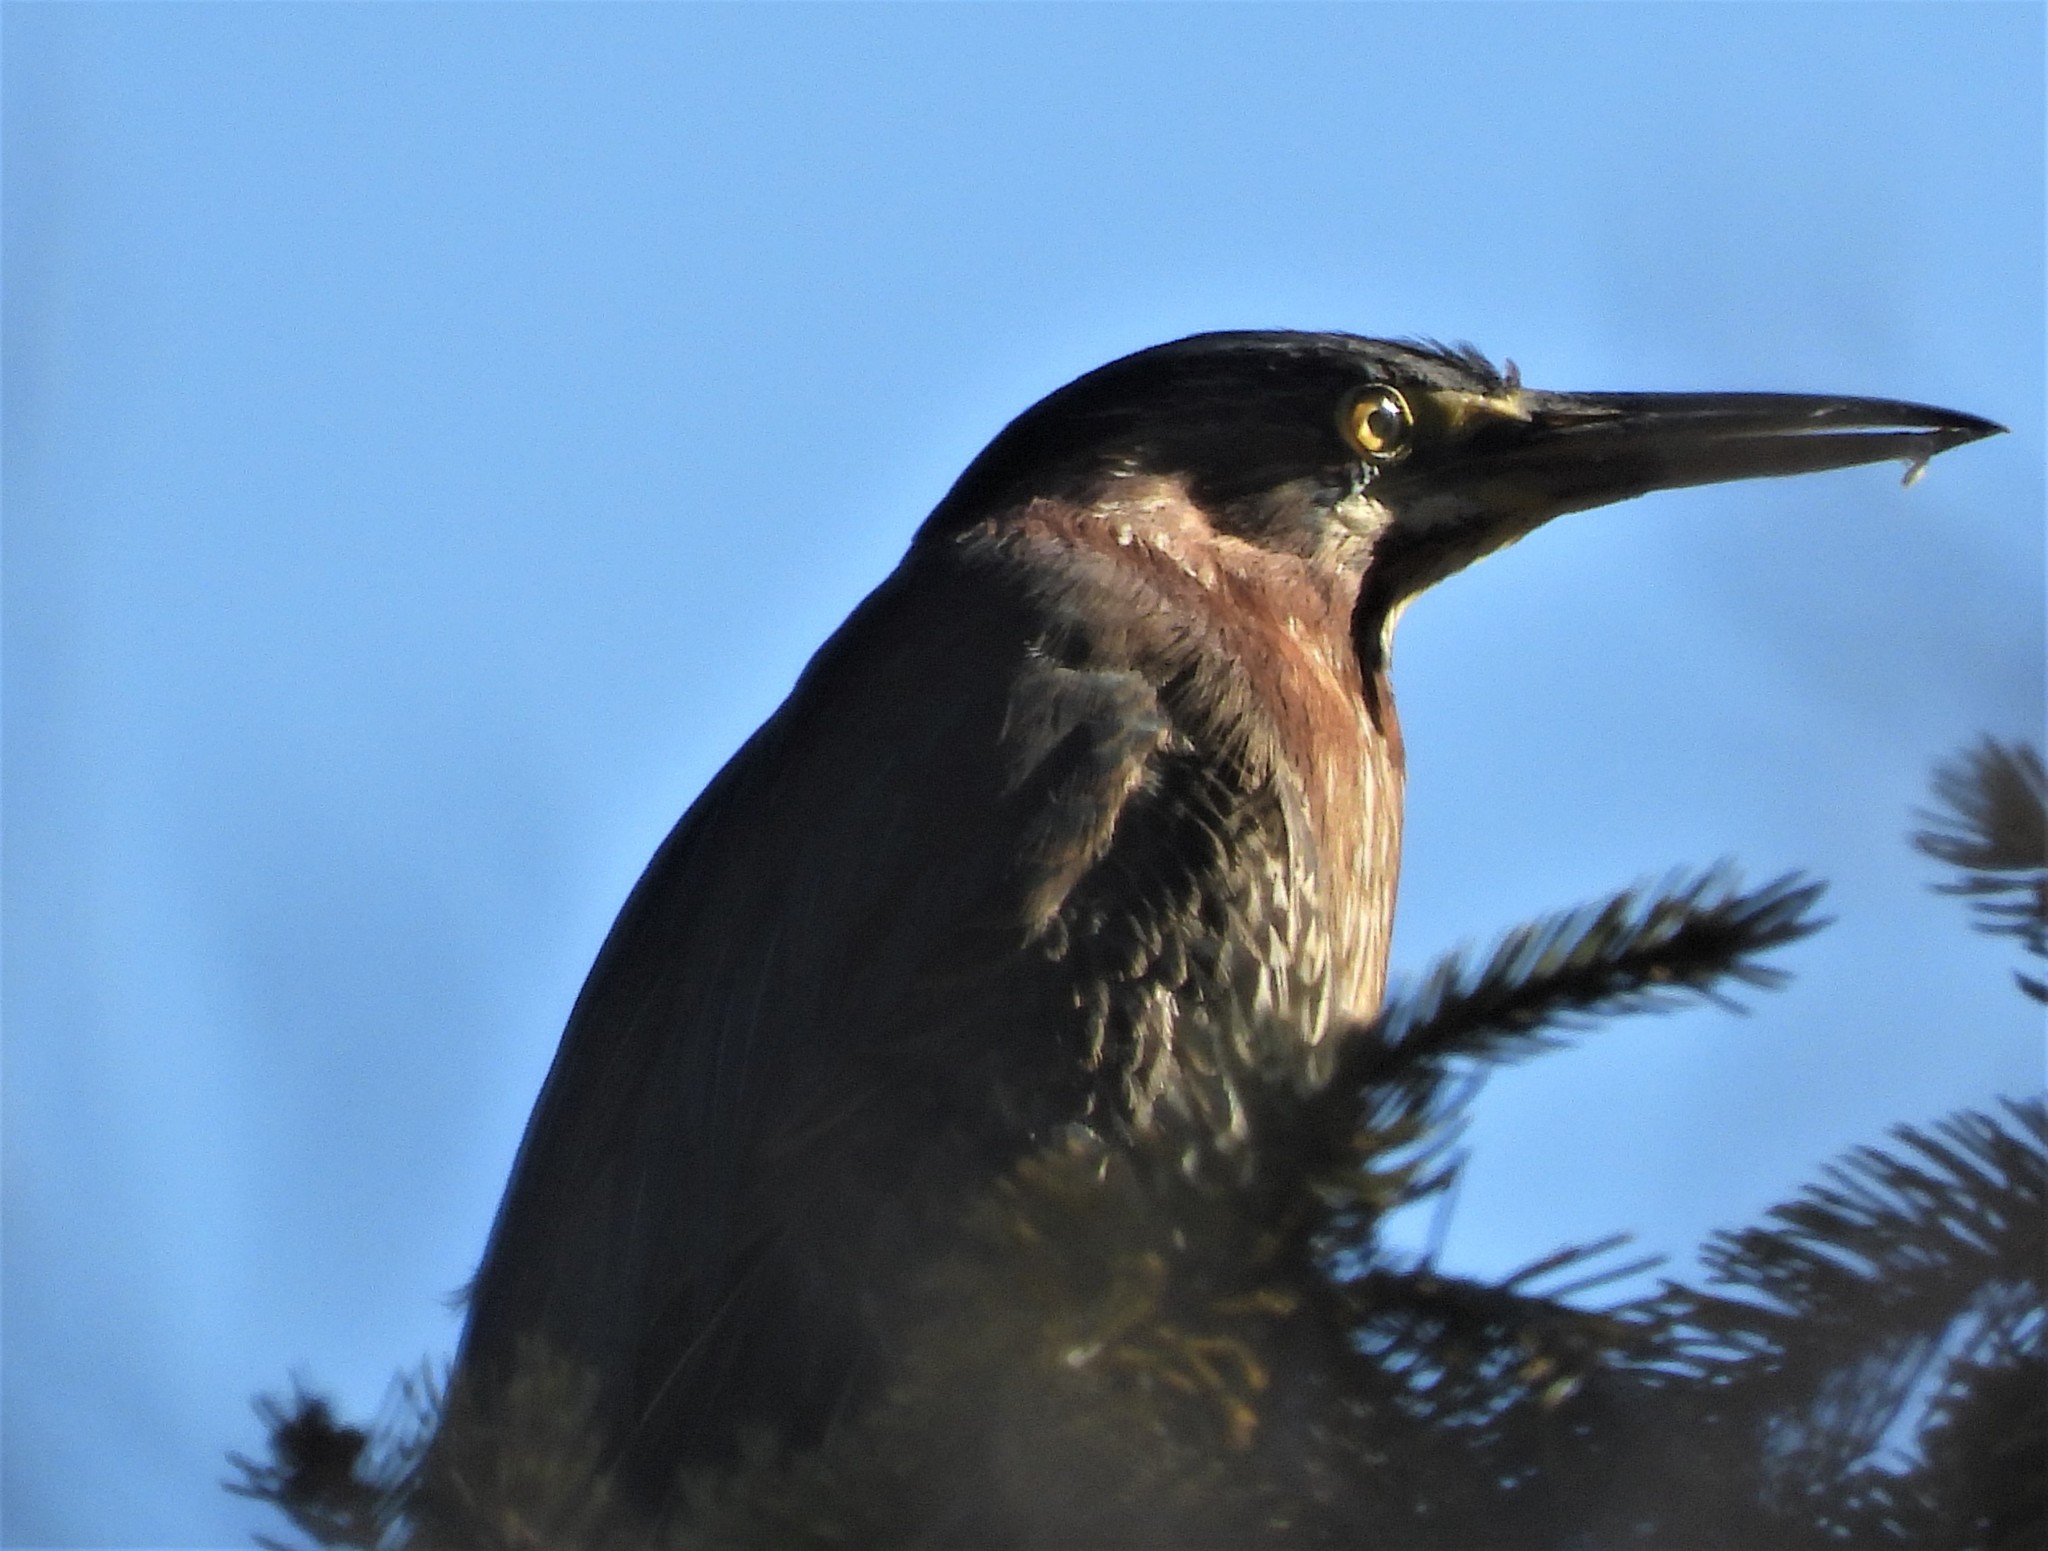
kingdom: Animalia
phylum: Chordata
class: Aves
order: Pelecaniformes
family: Ardeidae
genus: Butorides
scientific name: Butorides virescens
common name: Green heron
